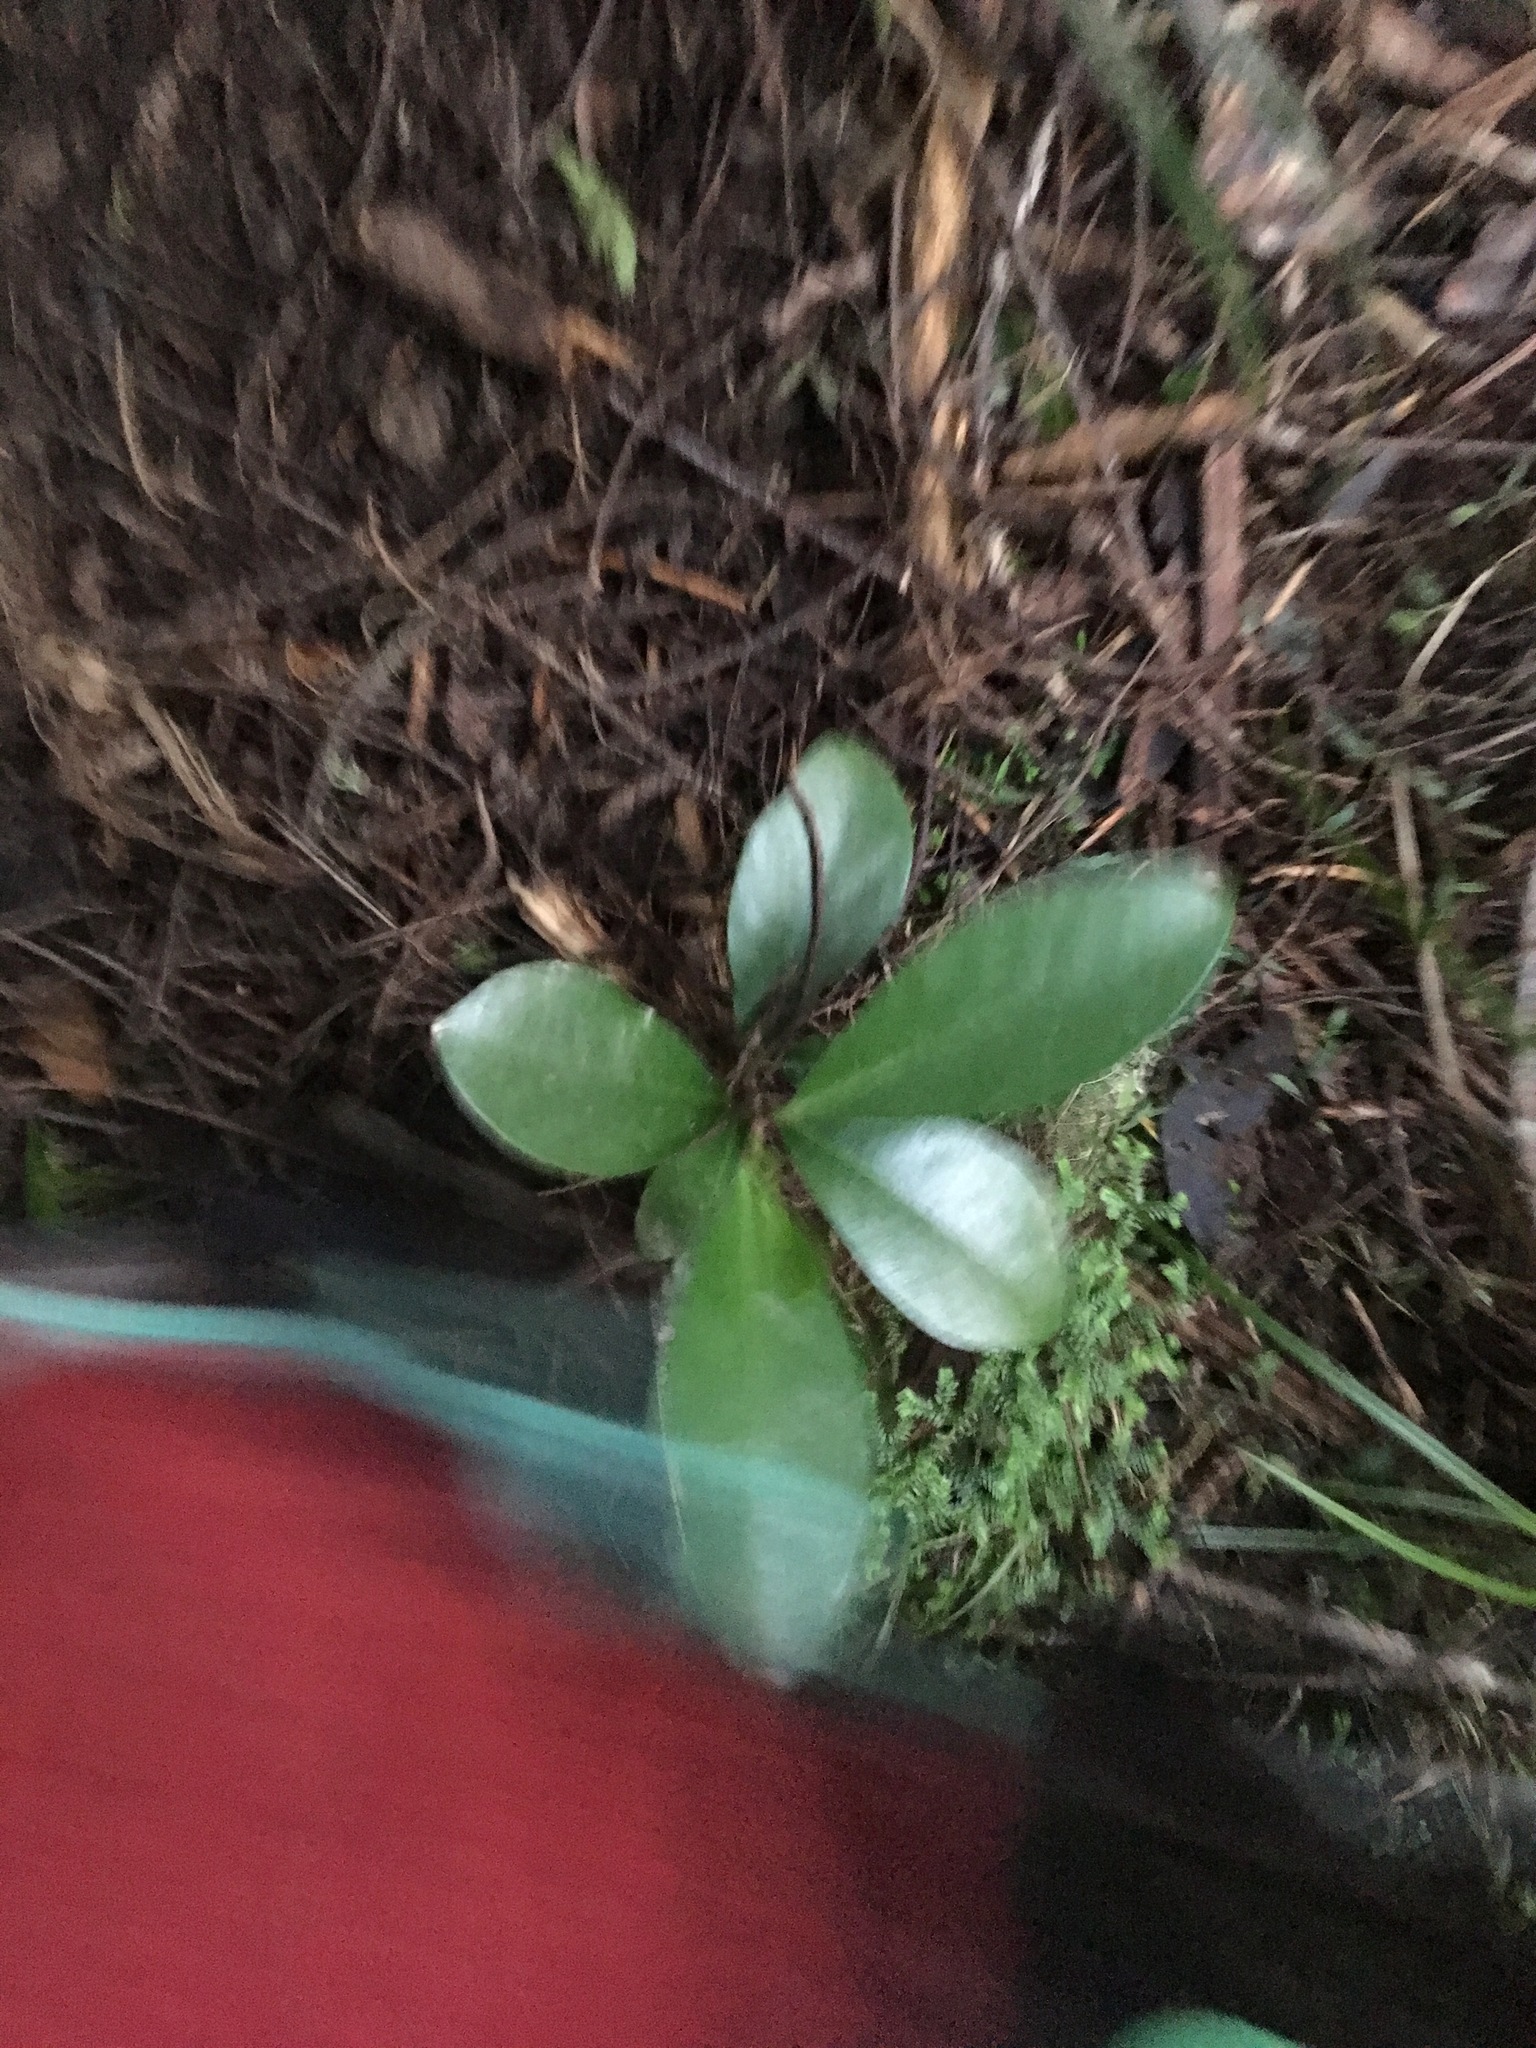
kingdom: Plantae
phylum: Tracheophyta
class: Magnoliopsida
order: Cucurbitales
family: Corynocarpaceae
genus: Corynocarpus
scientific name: Corynocarpus laevigatus
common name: New zealand laurel
